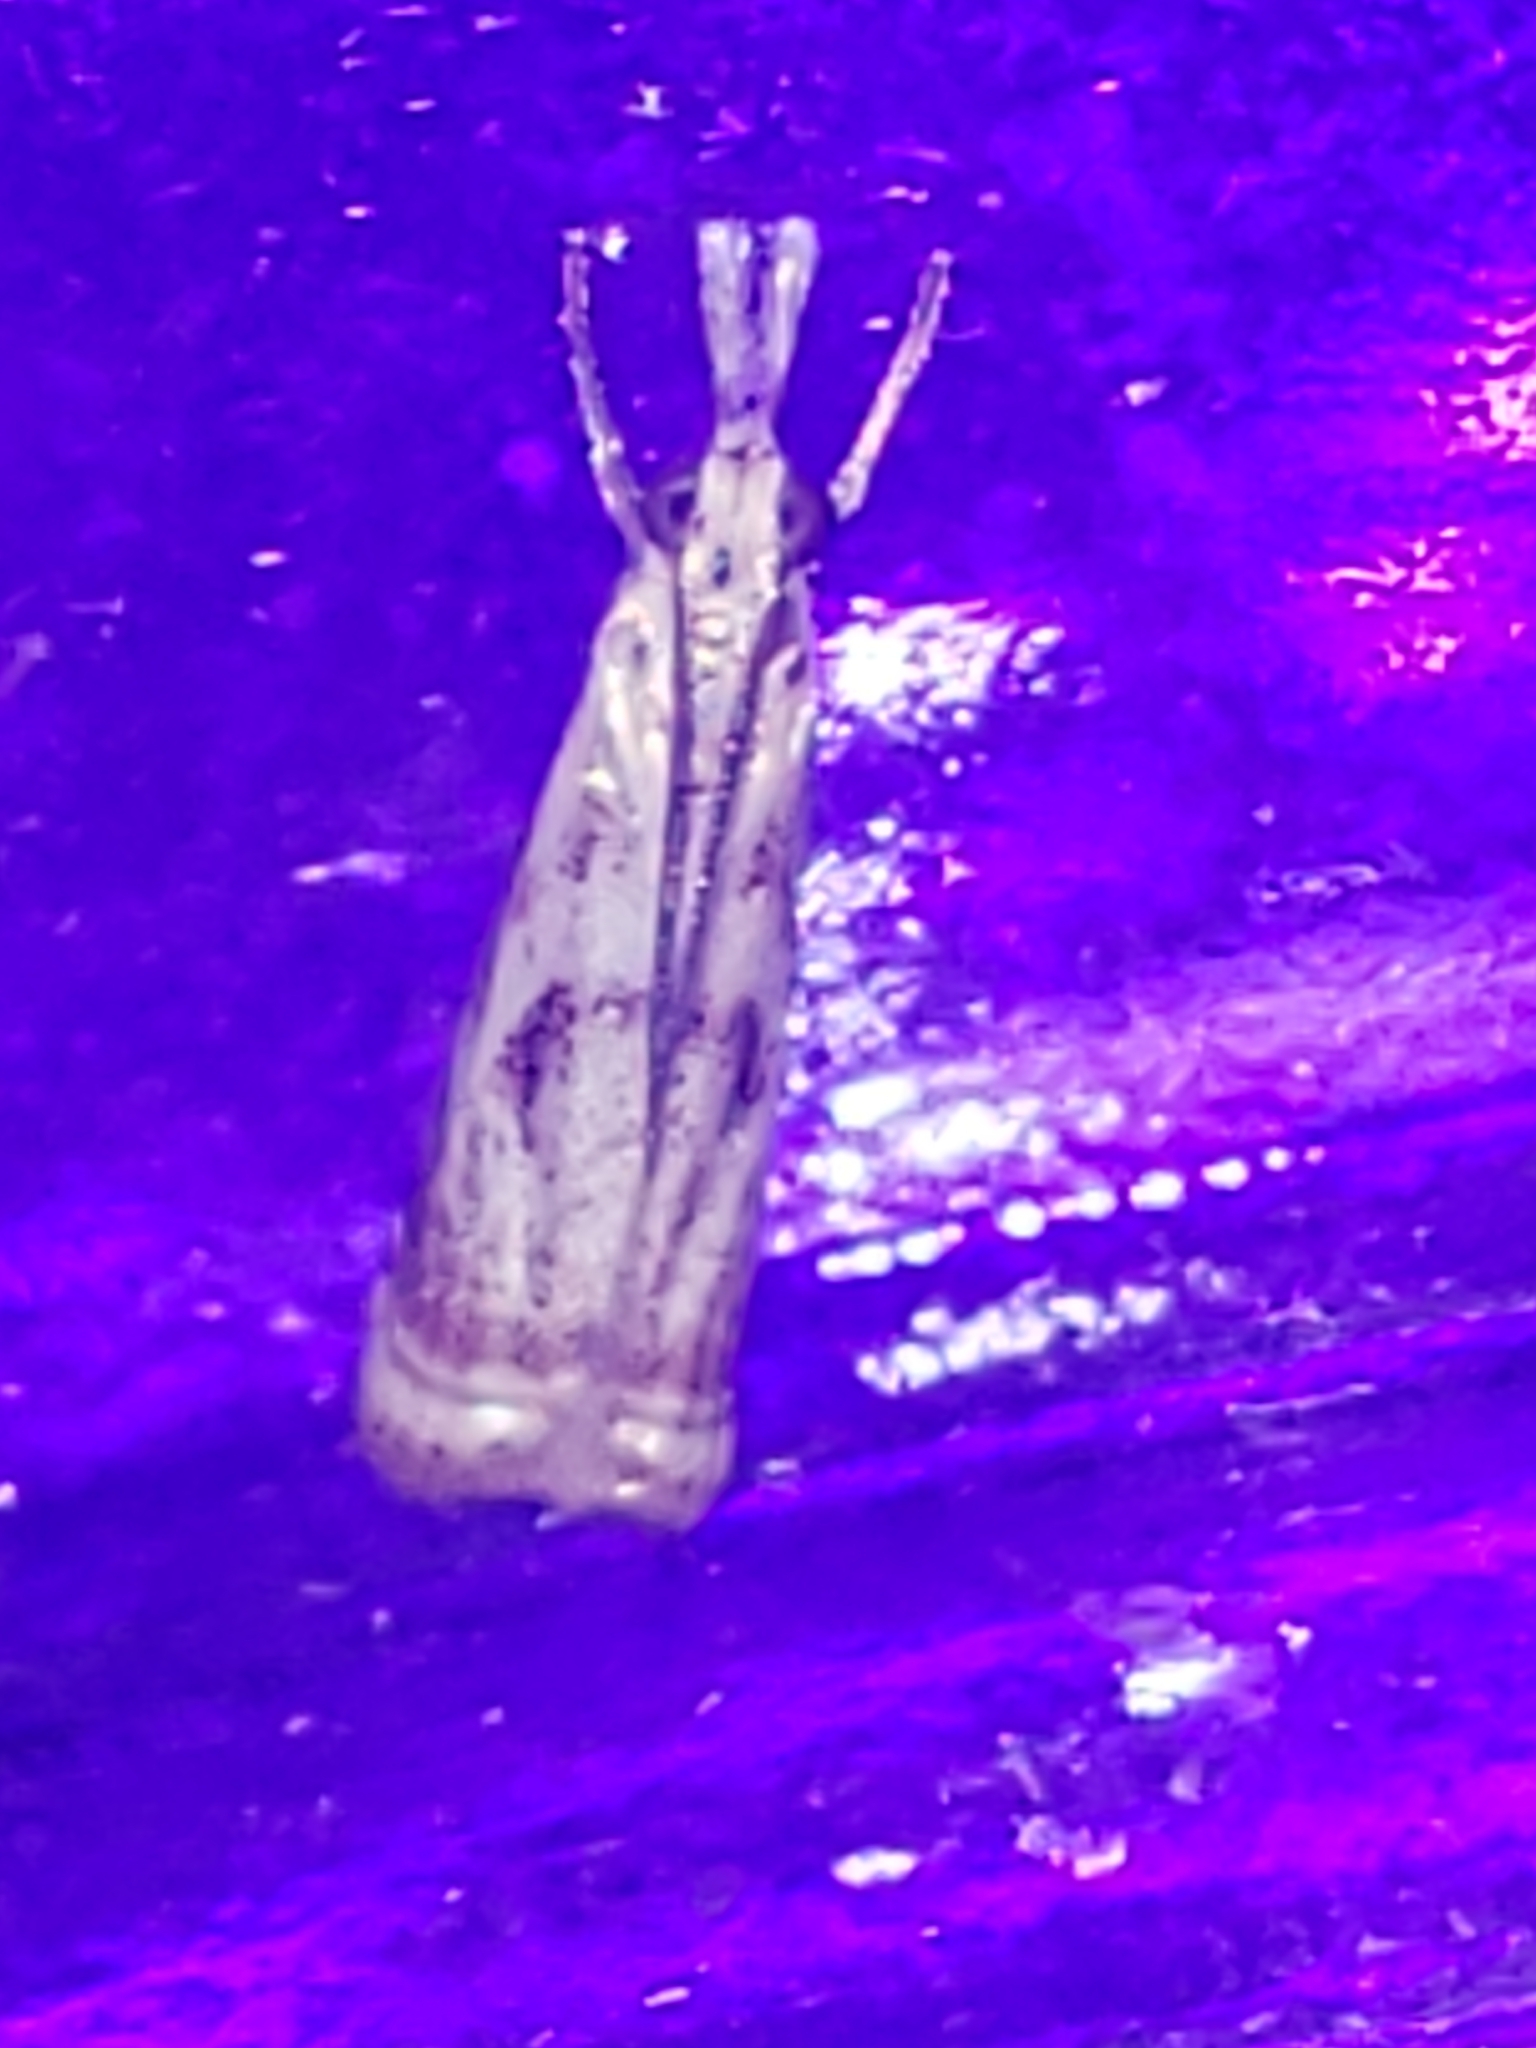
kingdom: Animalia
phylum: Arthropoda
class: Insecta
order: Lepidoptera
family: Crambidae
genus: Microcrambus
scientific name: Microcrambus elegans
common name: Elegant grass-veneer
